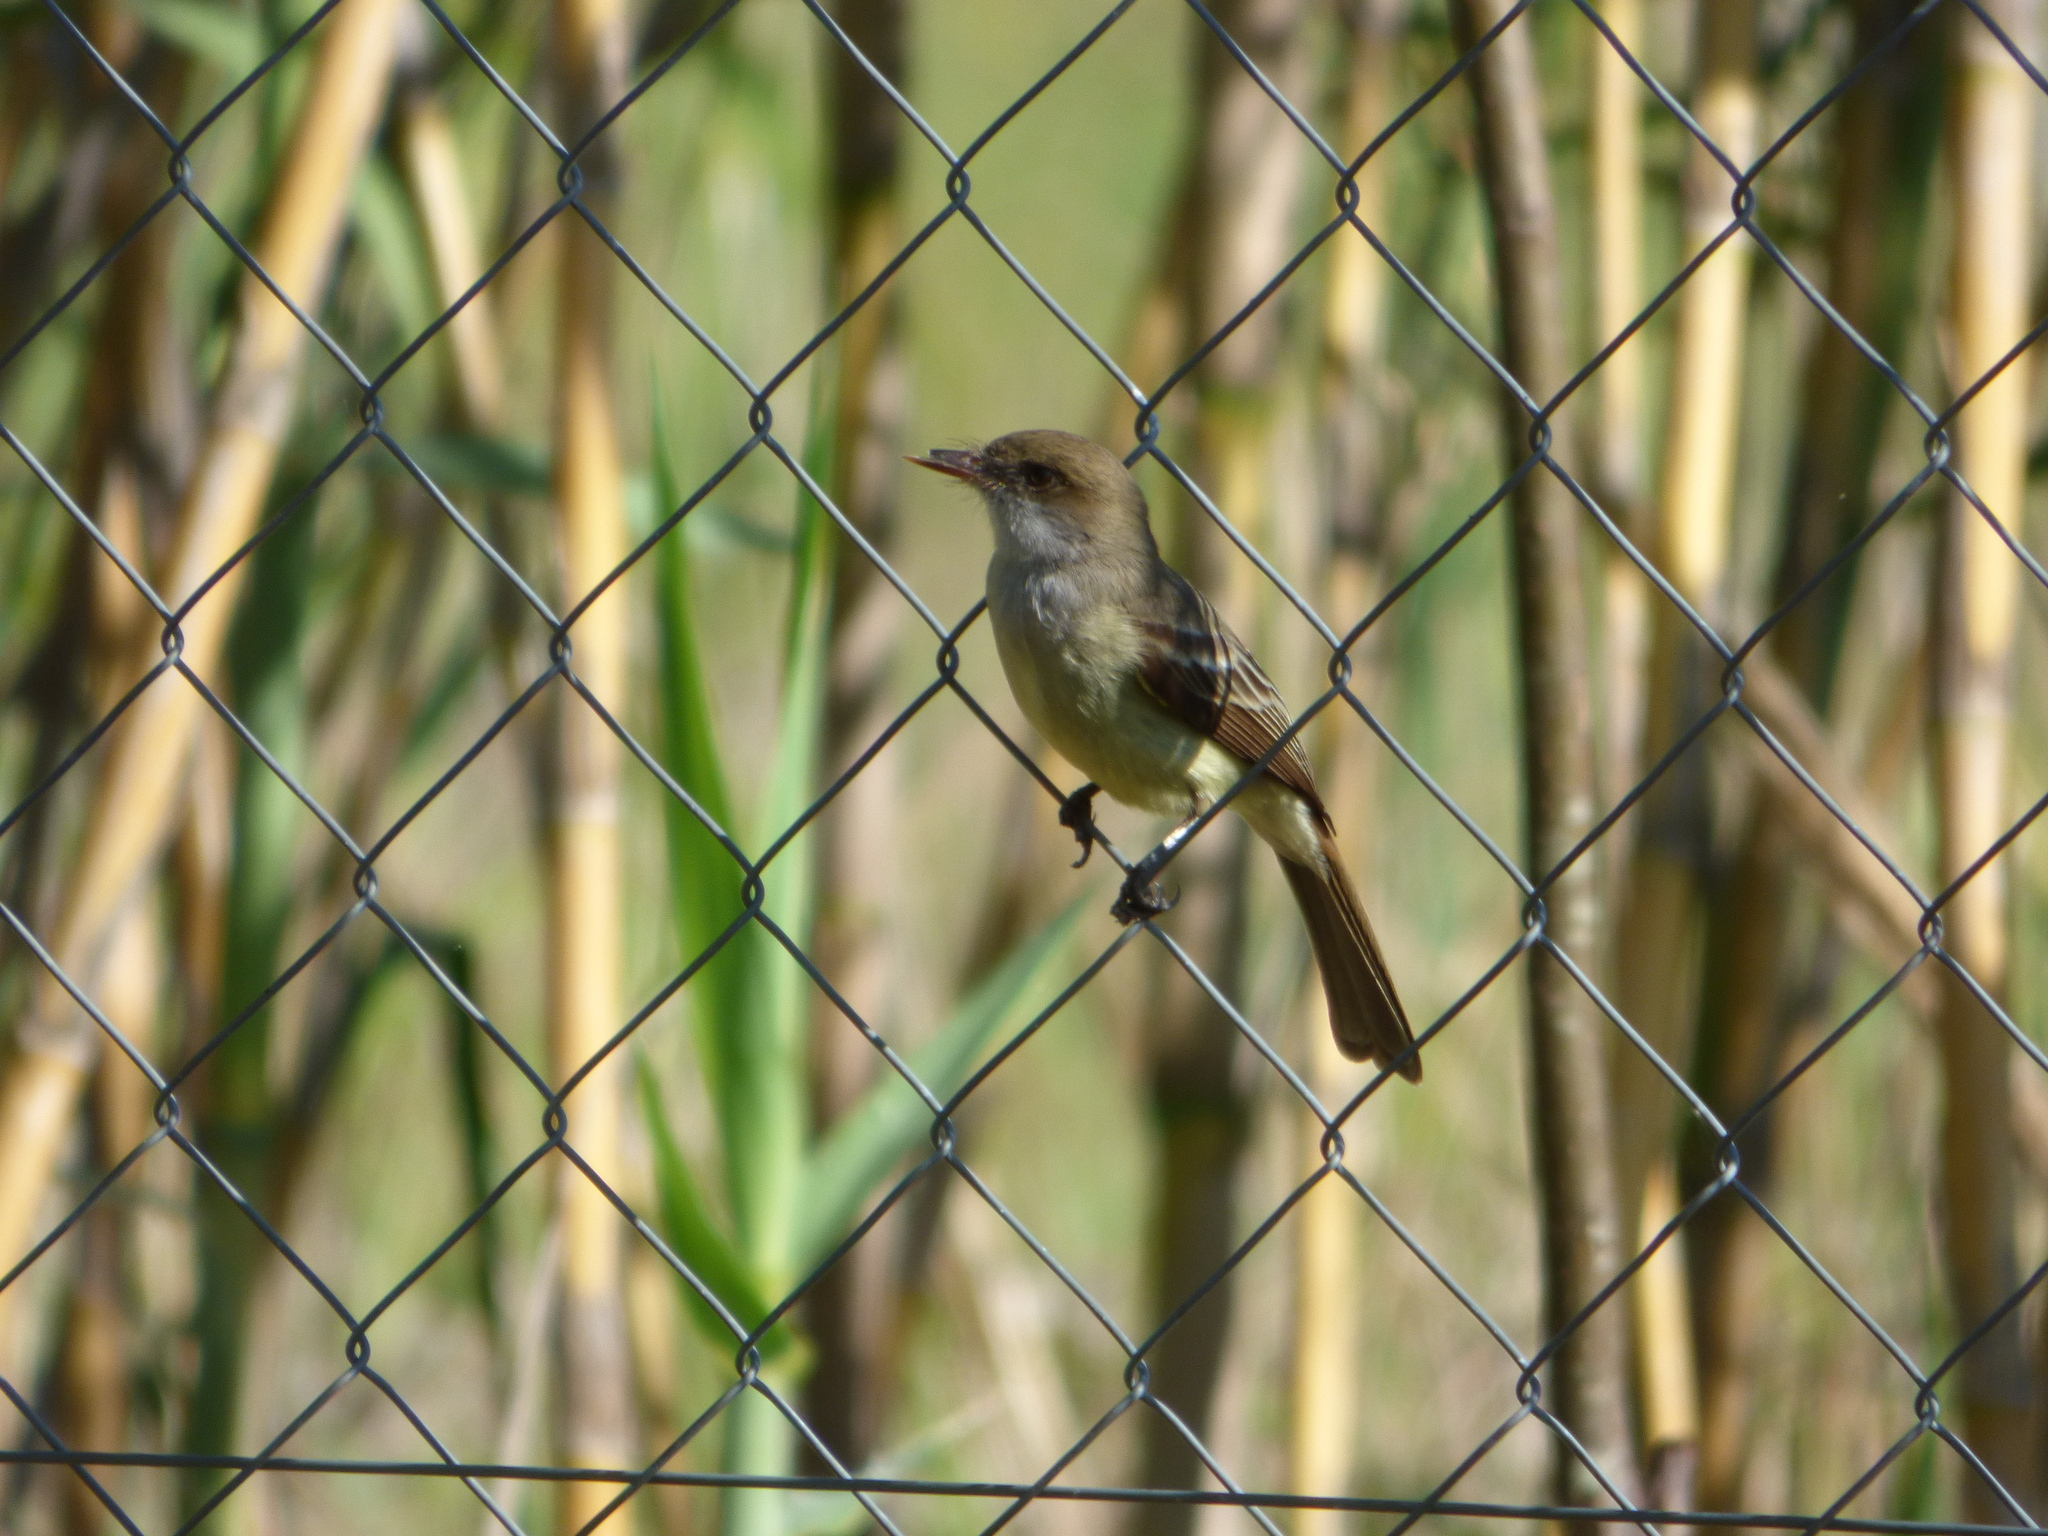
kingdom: Animalia
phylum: Chordata
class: Aves
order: Passeriformes
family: Tyrannidae
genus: Myiarchus
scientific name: Myiarchus swainsoni
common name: Swainson's flycatcher
